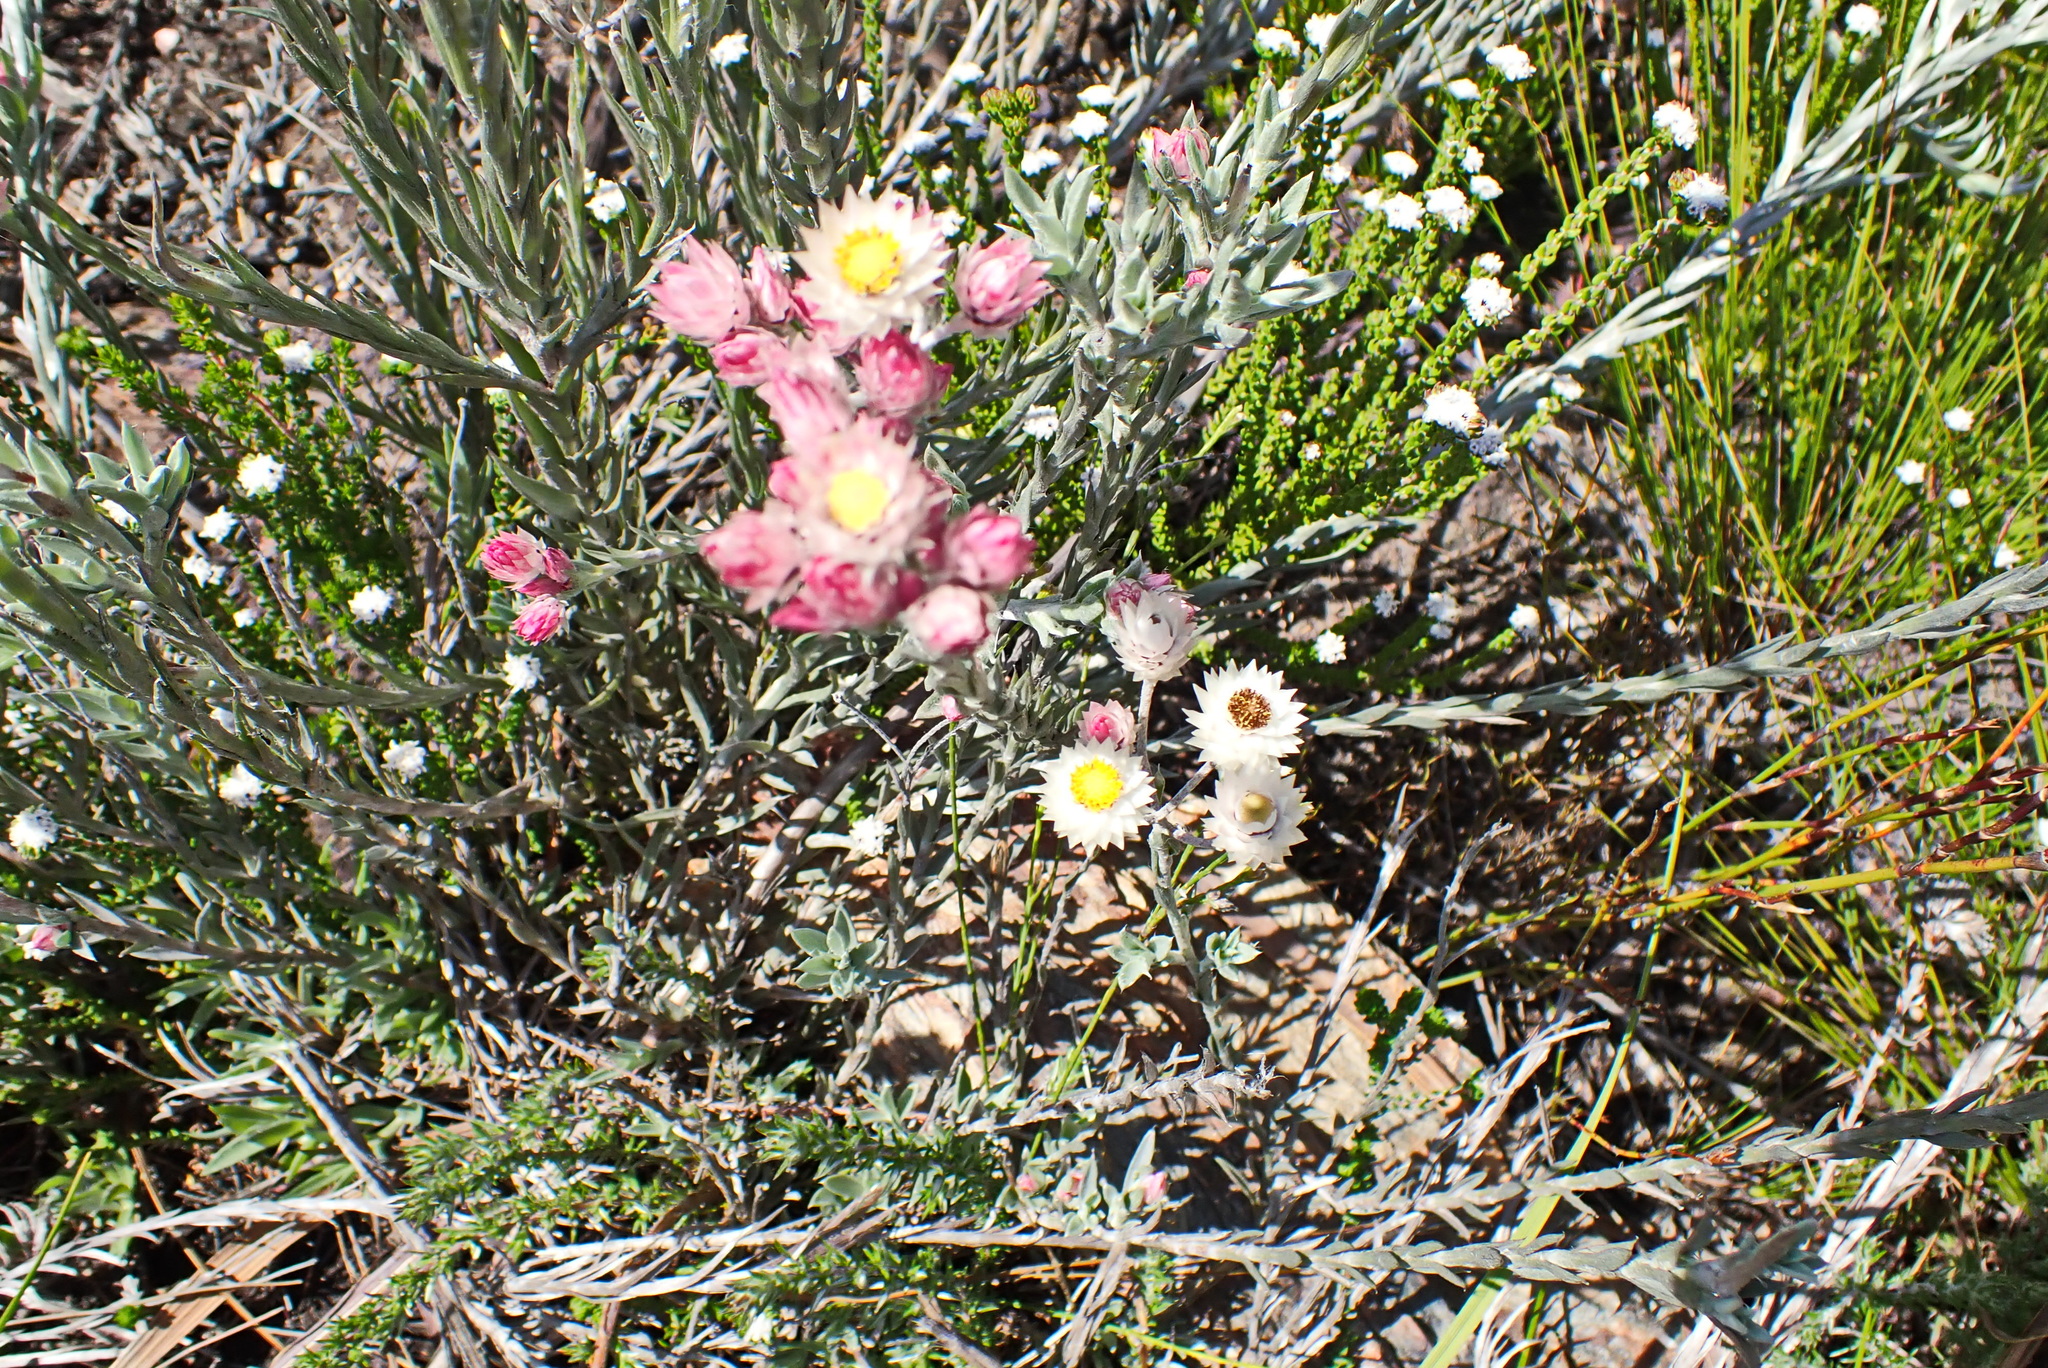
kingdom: Plantae
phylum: Tracheophyta
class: Magnoliopsida
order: Asterales
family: Asteraceae
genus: Achyranthemum
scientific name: Achyranthemum paniculatum
